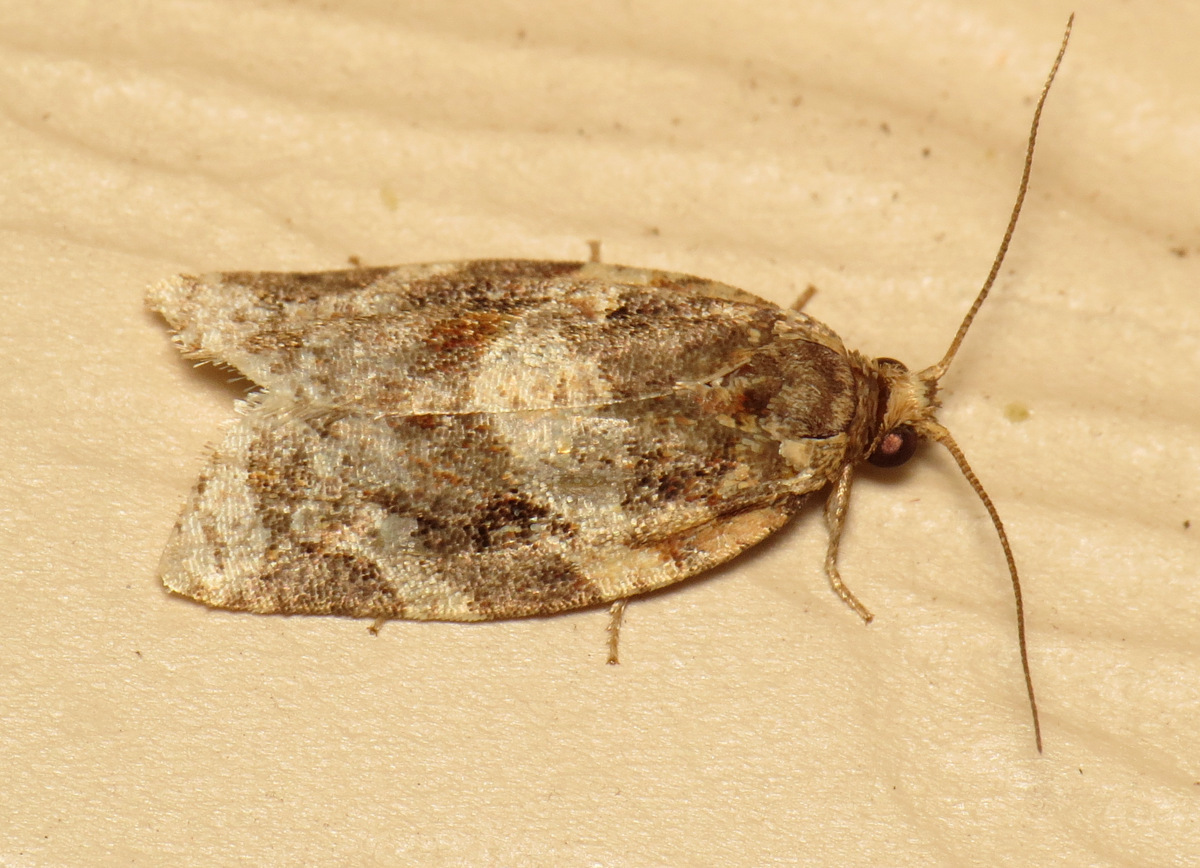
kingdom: Animalia
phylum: Arthropoda
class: Insecta
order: Lepidoptera
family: Tortricidae
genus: Argyrotaenia
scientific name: Argyrotaenia velutinana
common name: Red-banded leafroller moth
